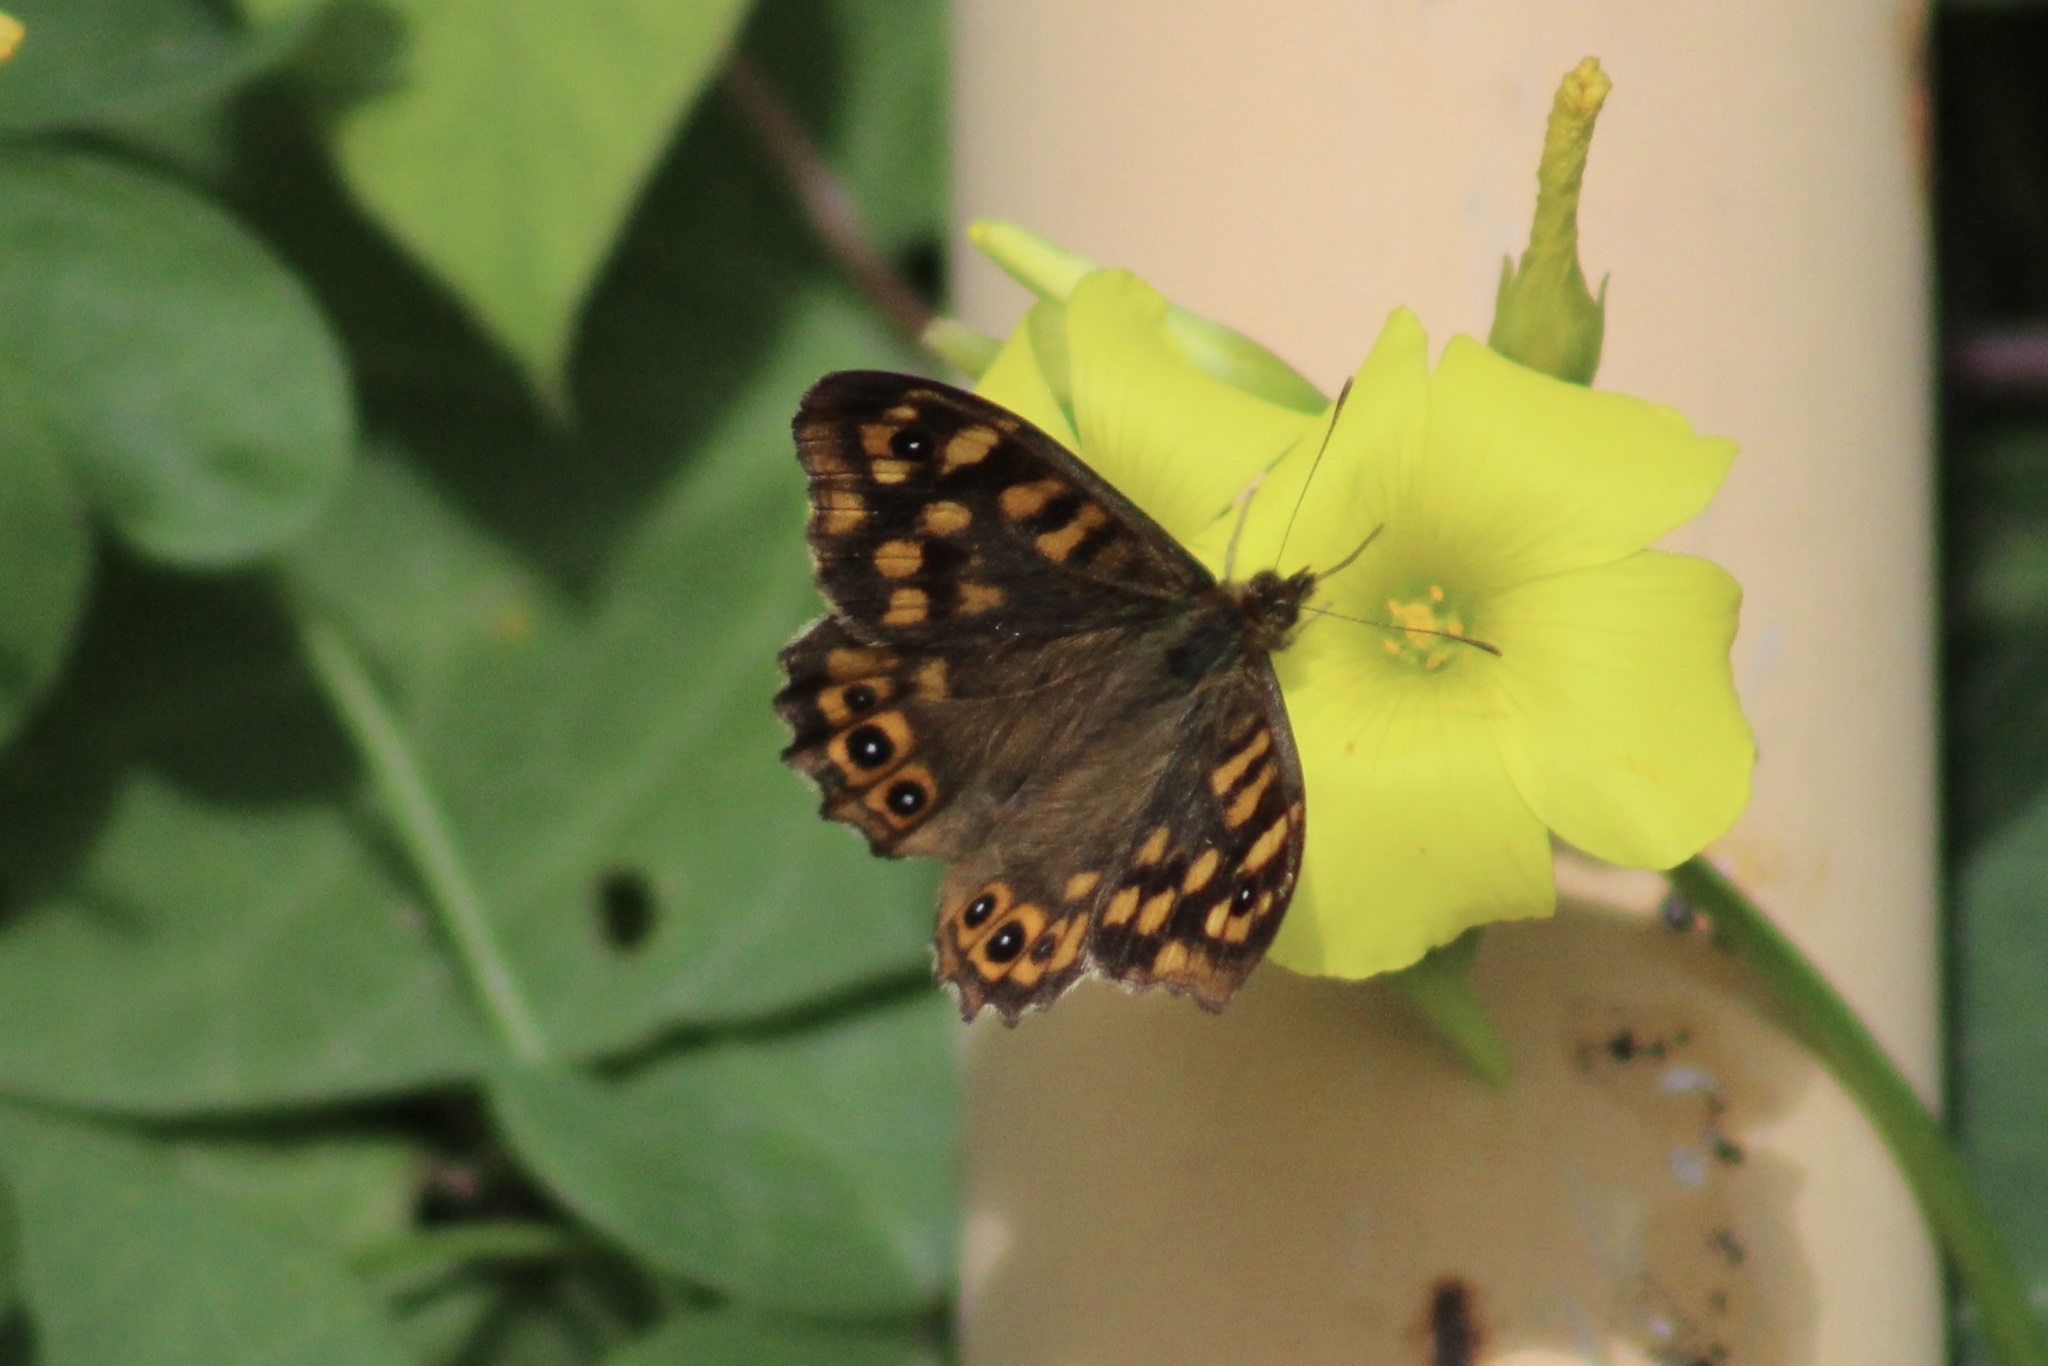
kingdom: Animalia
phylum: Arthropoda
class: Insecta
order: Lepidoptera
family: Nymphalidae
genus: Pararge
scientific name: Pararge aegeria
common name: Speckled wood
